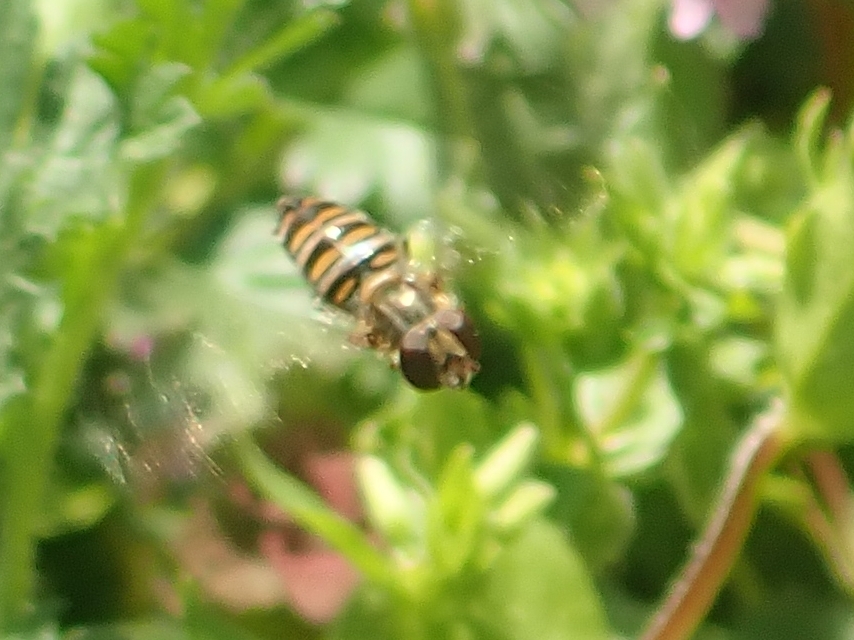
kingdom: Animalia
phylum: Arthropoda
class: Insecta
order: Diptera
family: Syrphidae
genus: Episyrphus
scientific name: Episyrphus balteatus
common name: Marmalade hoverfly
